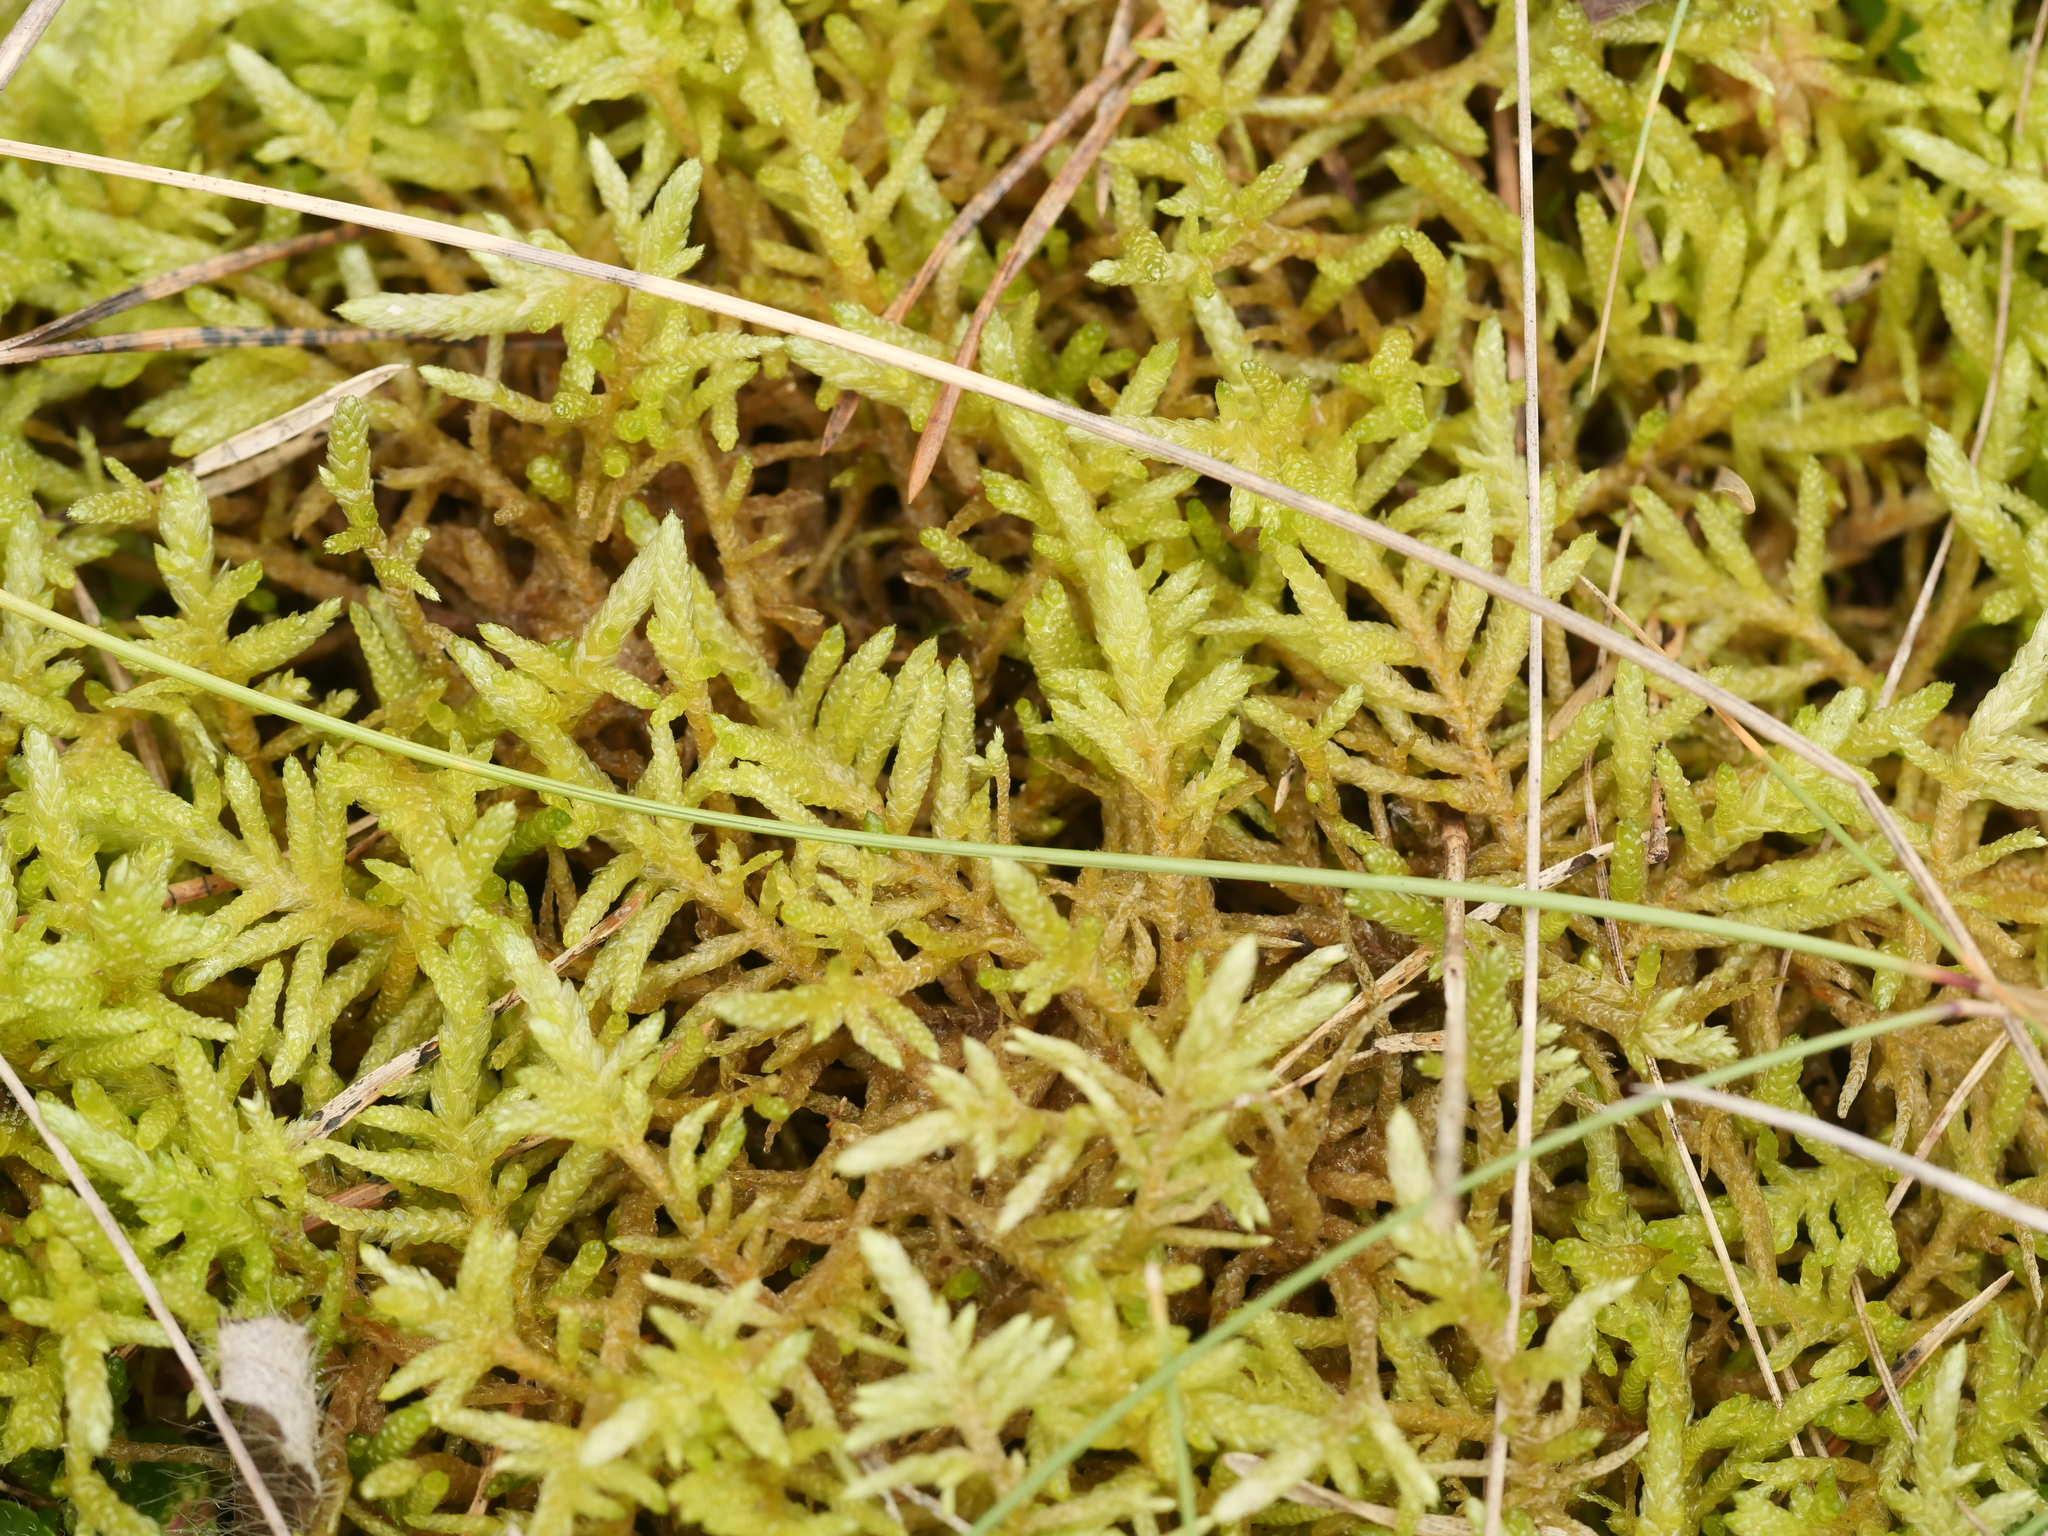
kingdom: Plantae
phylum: Bryophyta
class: Bryopsida
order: Hypnales
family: Brachytheciaceae
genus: Pseudoscleropodium
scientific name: Pseudoscleropodium purum
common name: Neat feather-moss
